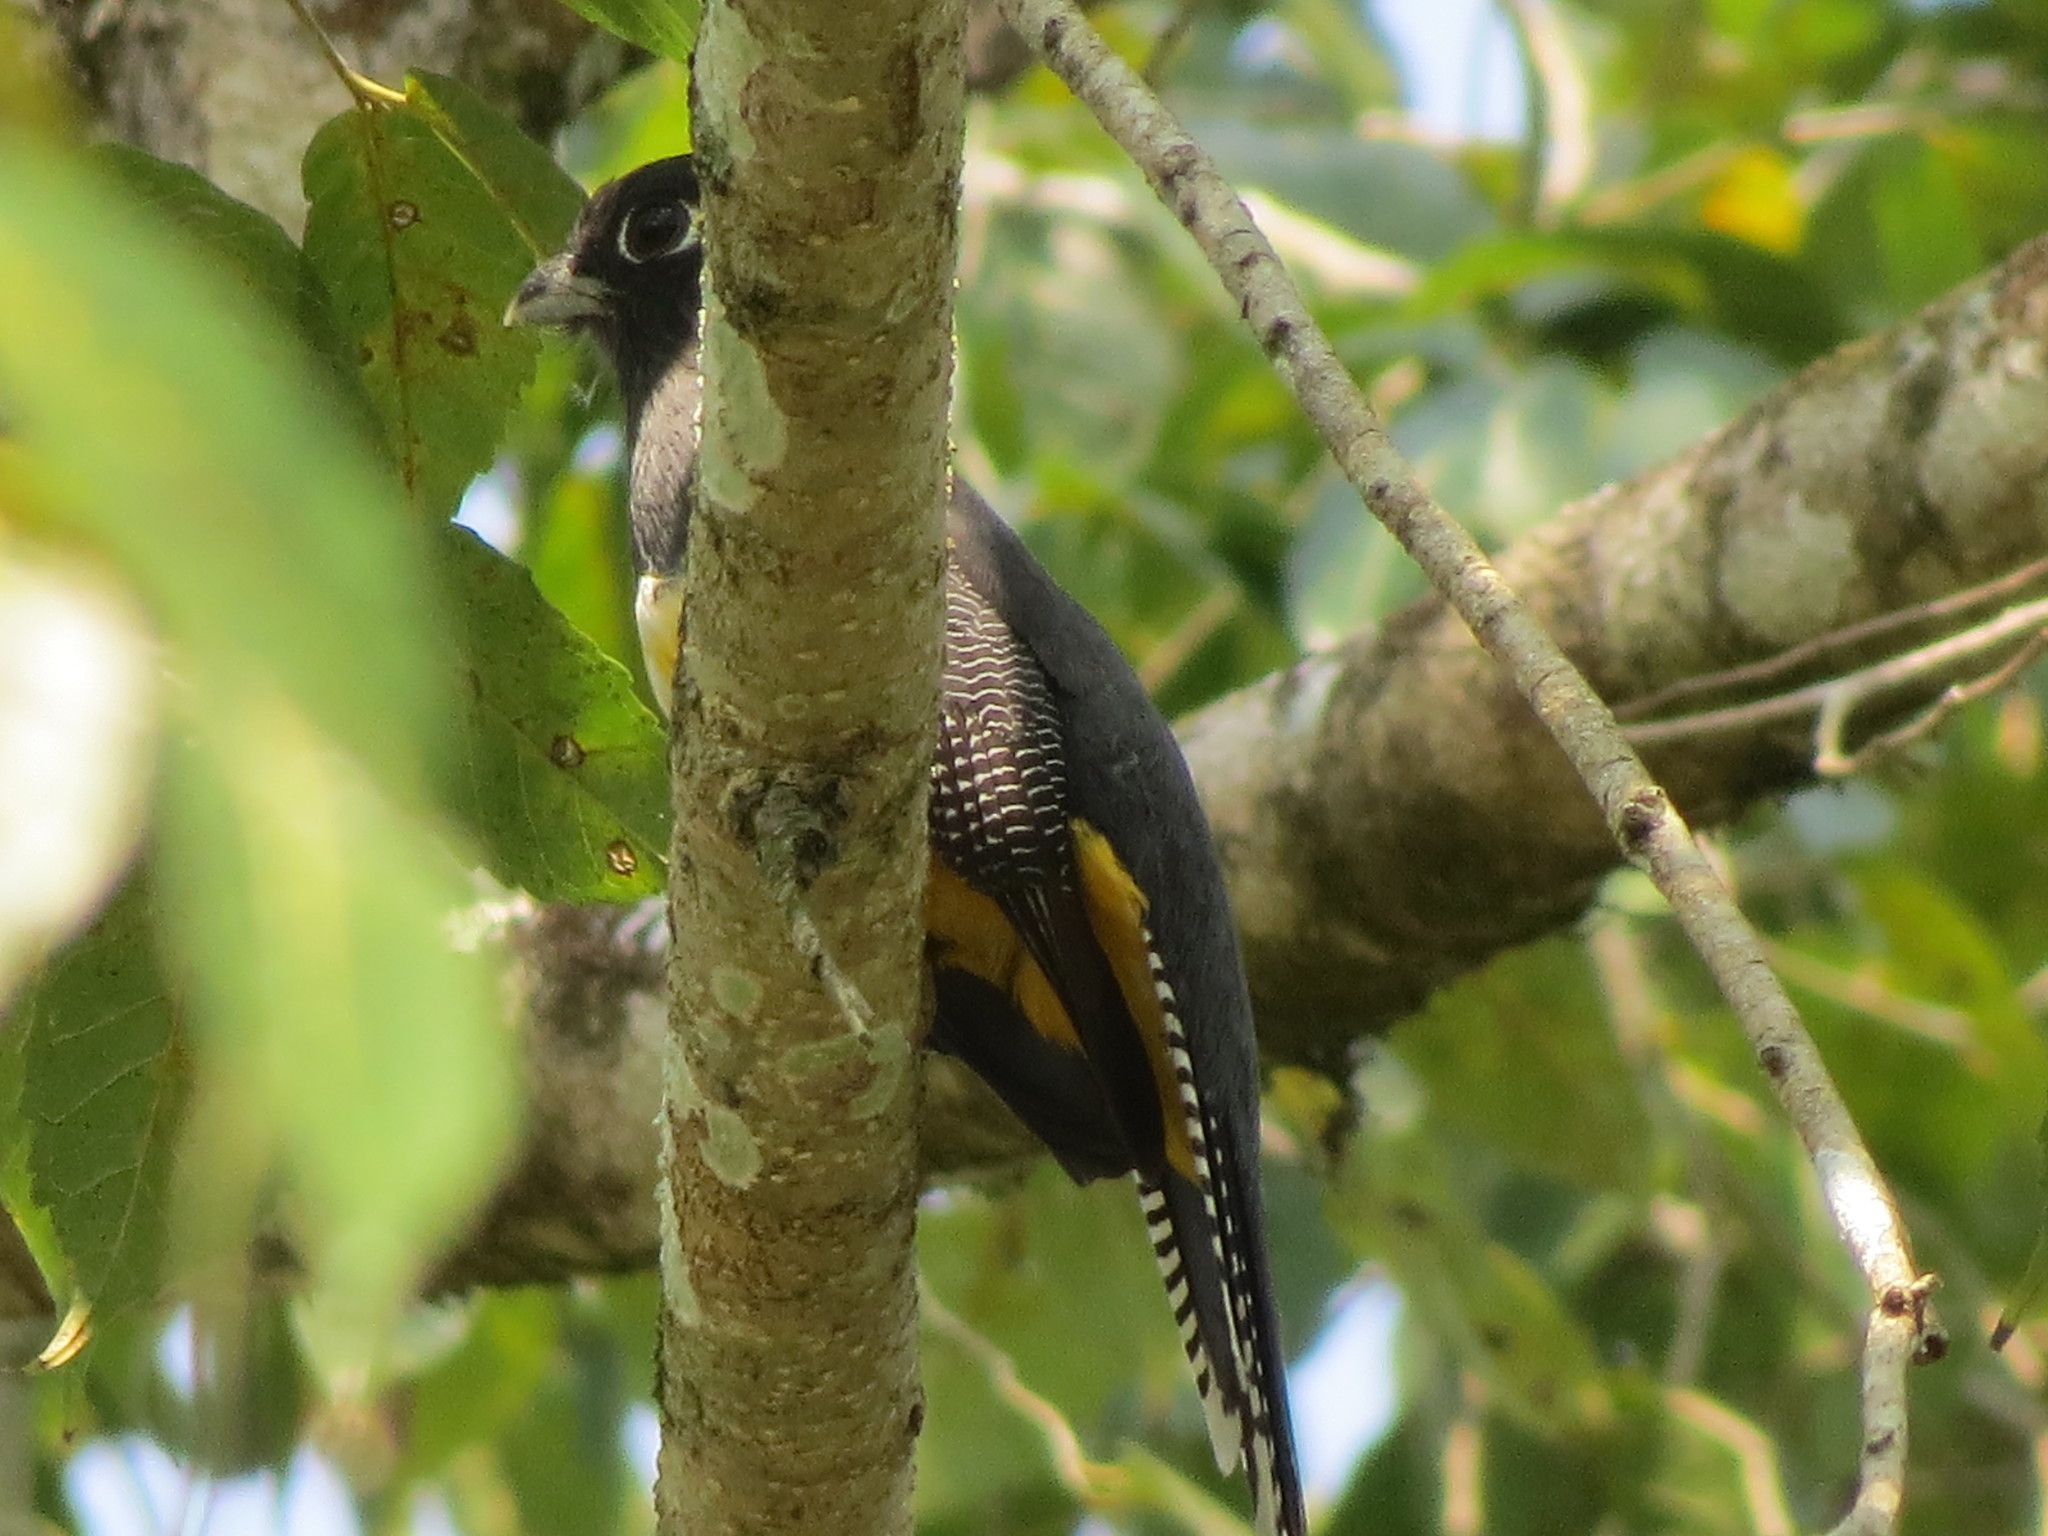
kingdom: Animalia
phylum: Chordata
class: Aves
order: Trogoniformes
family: Trogonidae
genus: Trogon
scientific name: Trogon caligatus
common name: Gartered trogon
